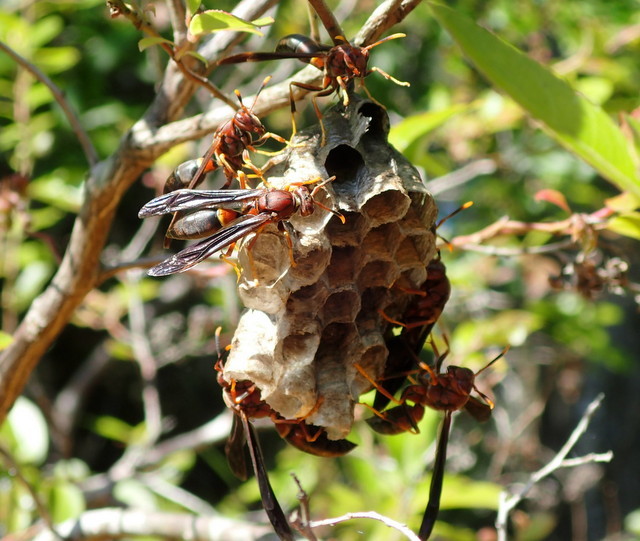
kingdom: Animalia
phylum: Arthropoda
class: Insecta
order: Hymenoptera
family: Eumenidae
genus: Polistes
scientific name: Polistes annularis
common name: Ringed paper wasp
